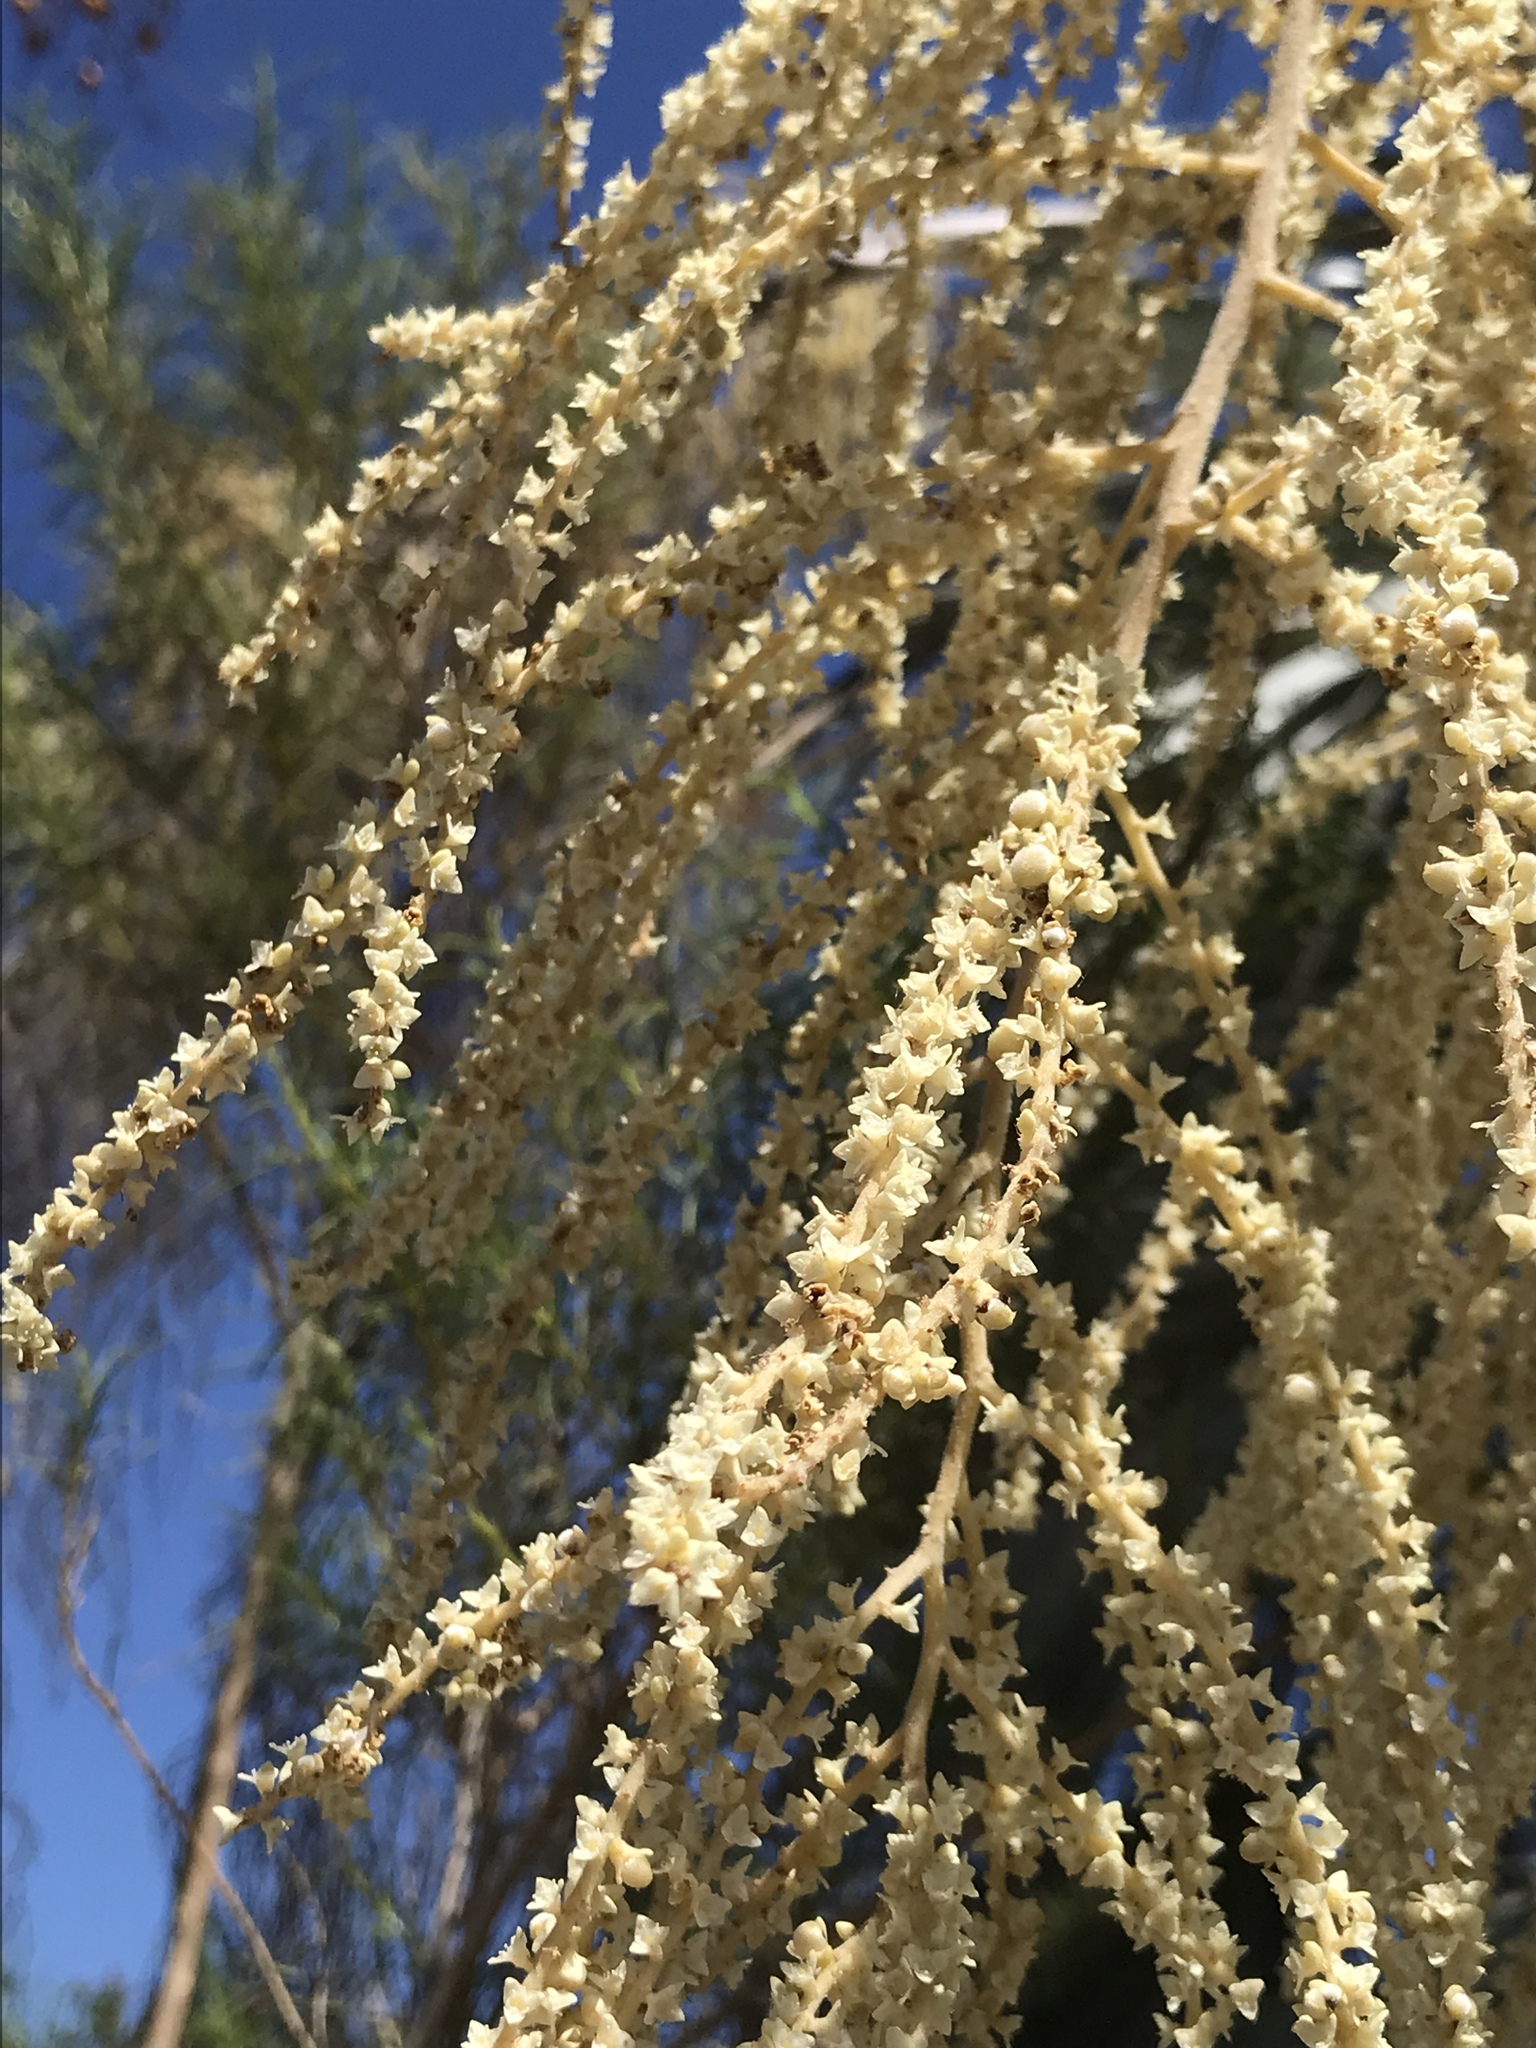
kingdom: Plantae
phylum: Tracheophyta
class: Liliopsida
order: Arecales
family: Arecaceae
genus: Brahea
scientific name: Brahea armata
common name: Mexican blue palm
